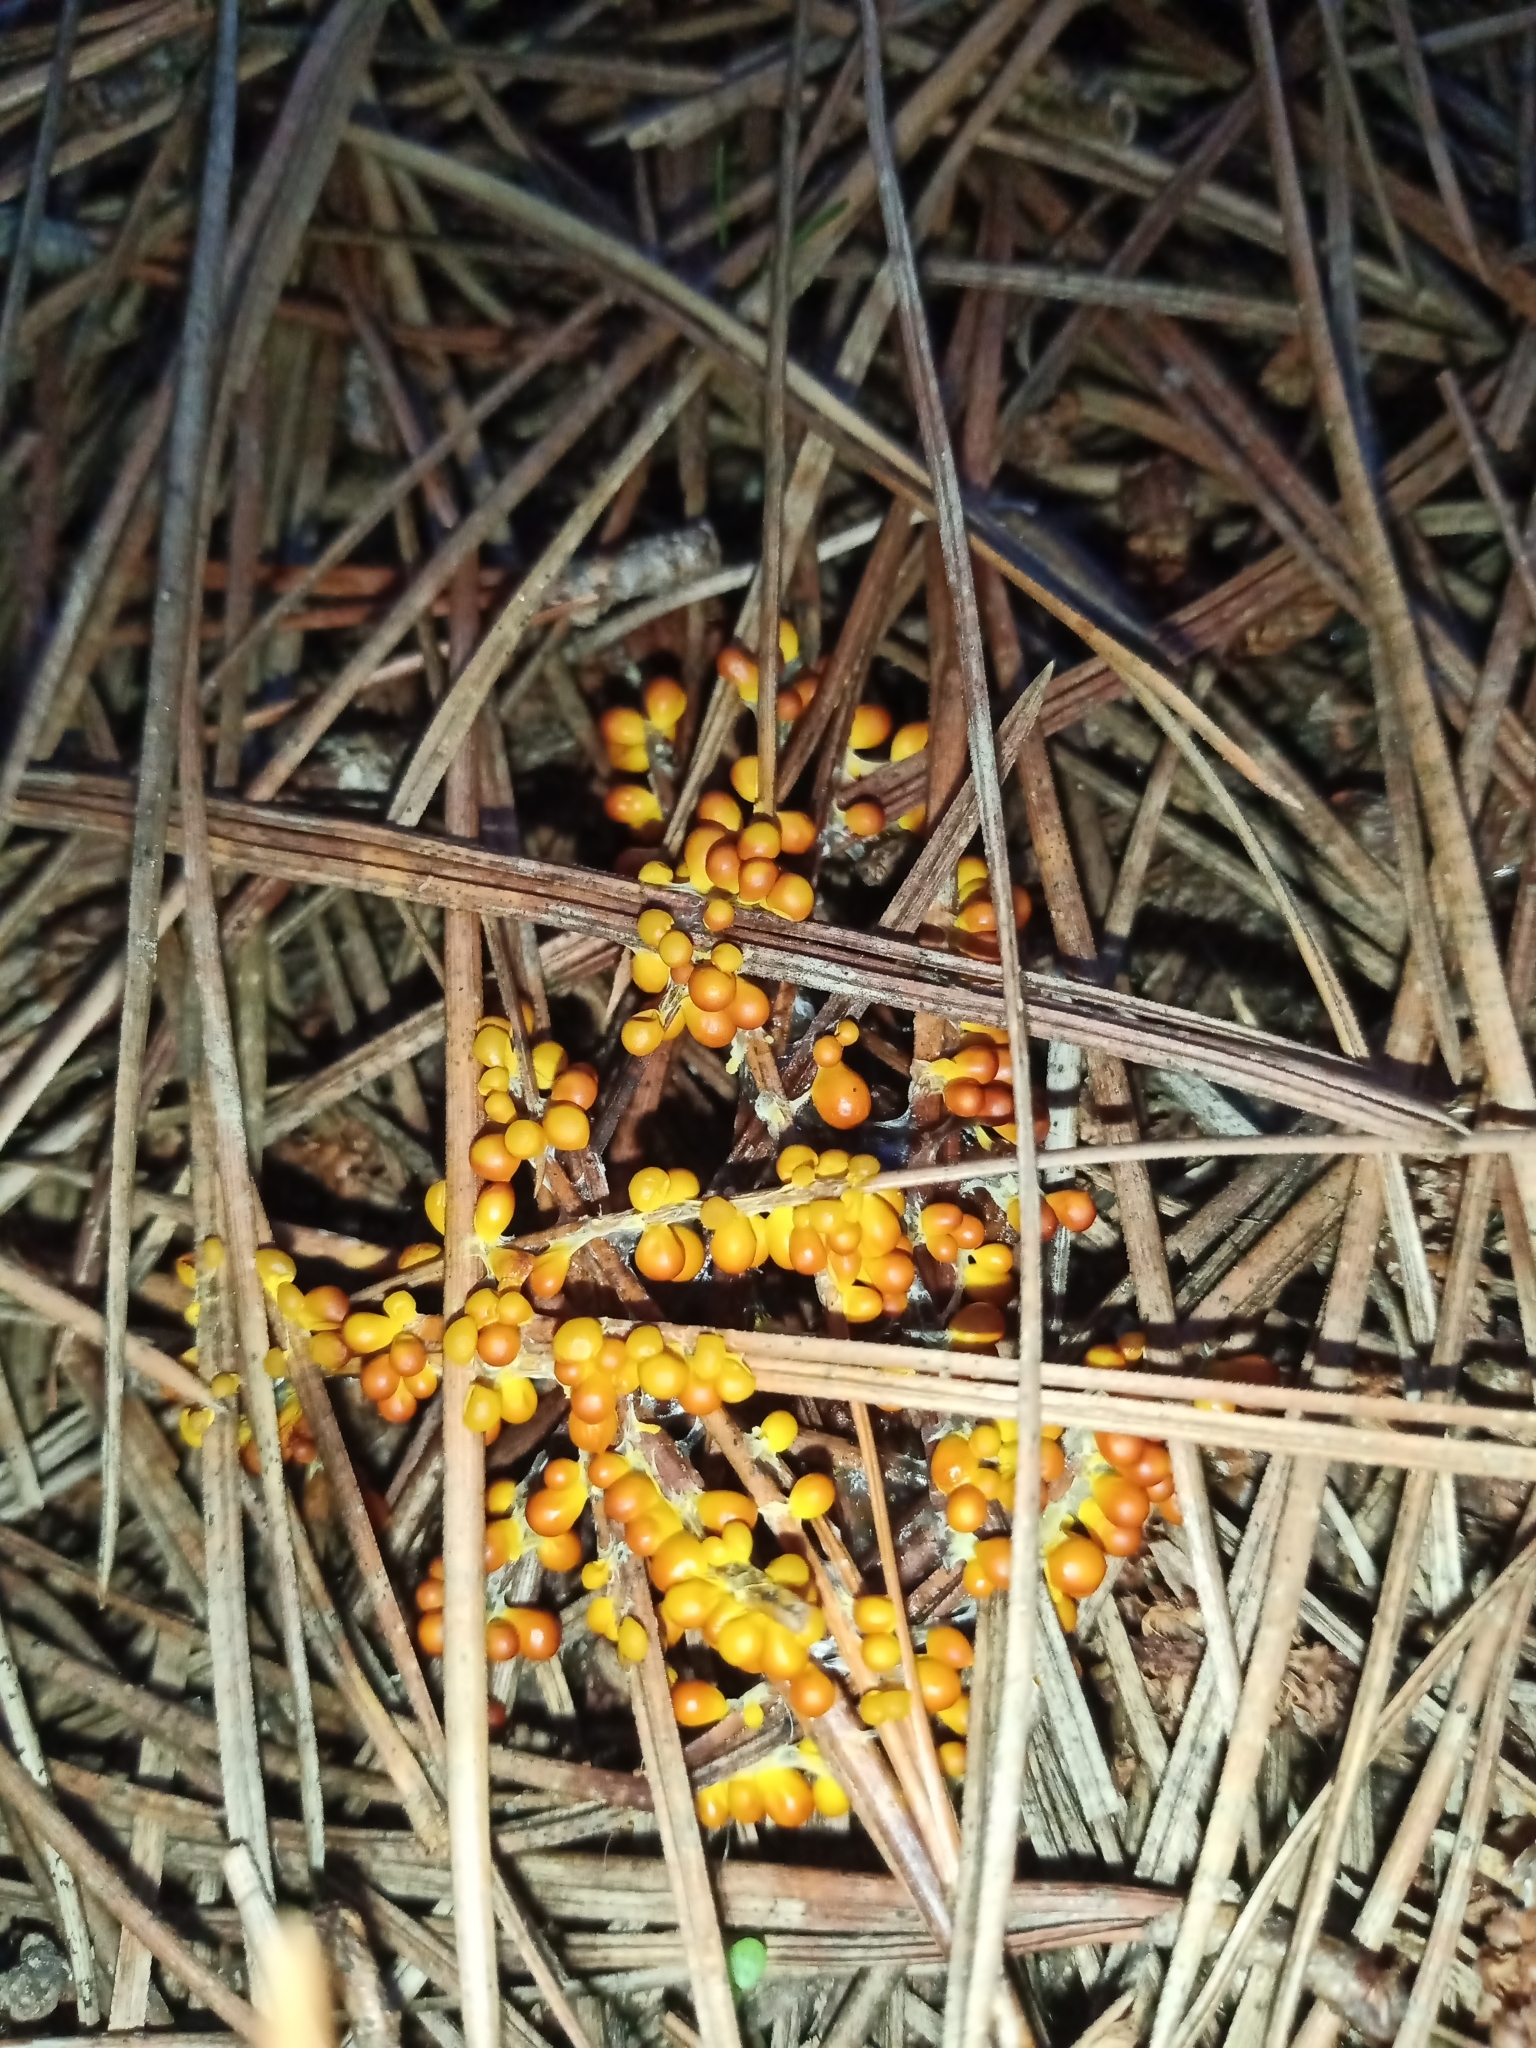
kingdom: Protozoa
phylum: Mycetozoa
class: Myxomycetes
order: Physarales
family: Physaraceae
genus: Leocarpus
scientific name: Leocarpus fragilis
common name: Insect-egg slime
